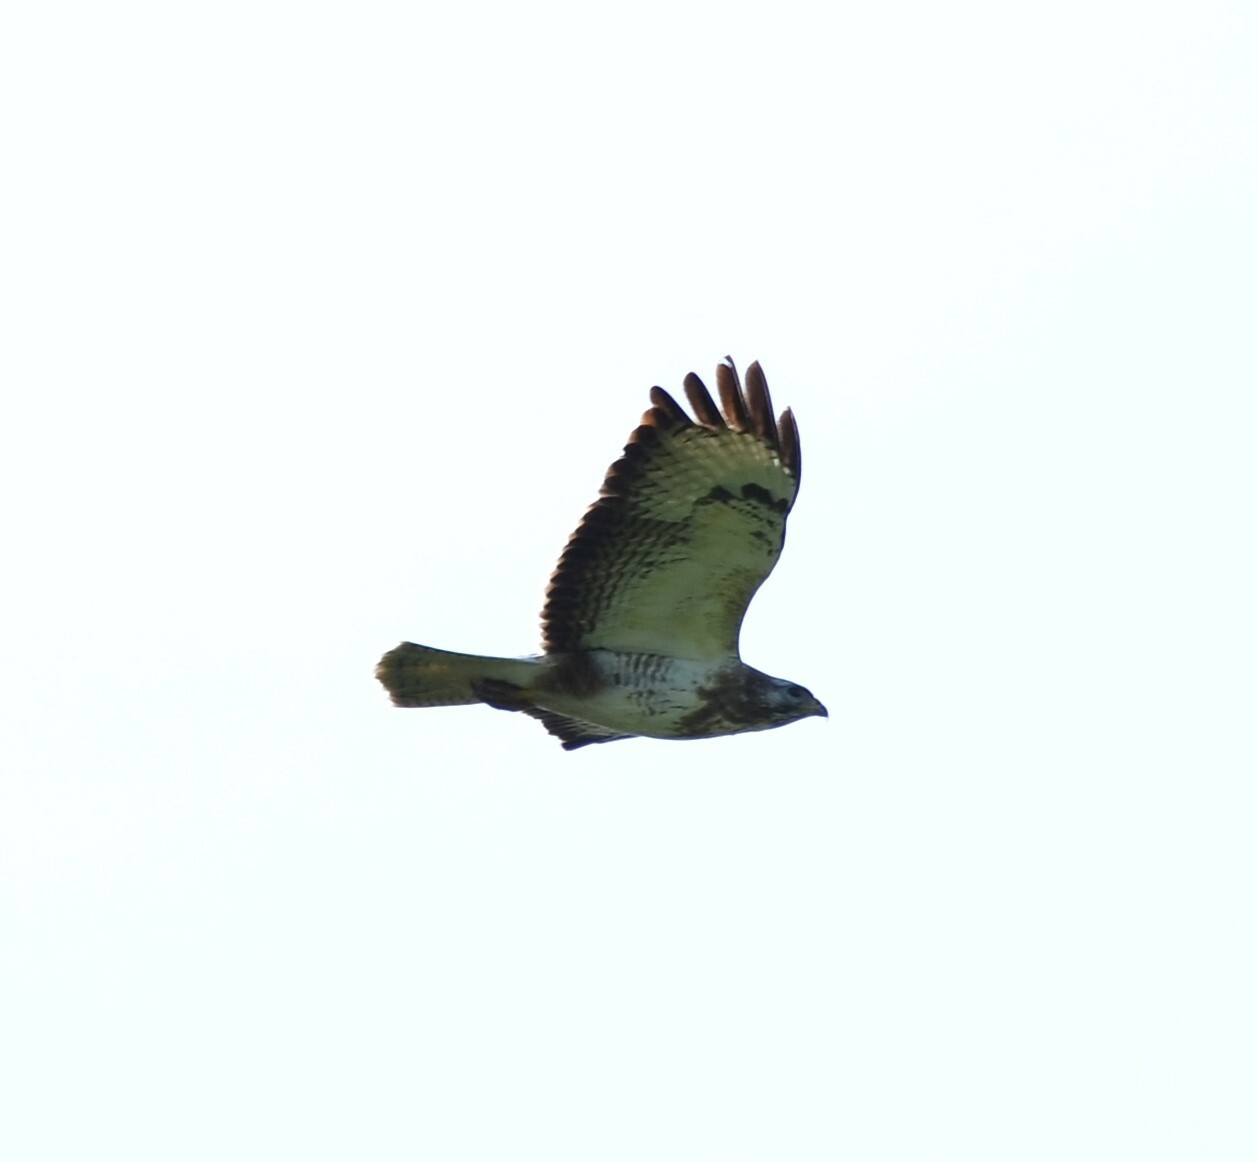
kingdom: Animalia
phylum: Chordata
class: Aves
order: Accipitriformes
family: Accipitridae
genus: Buteo
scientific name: Buteo buteo
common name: Common buzzard
